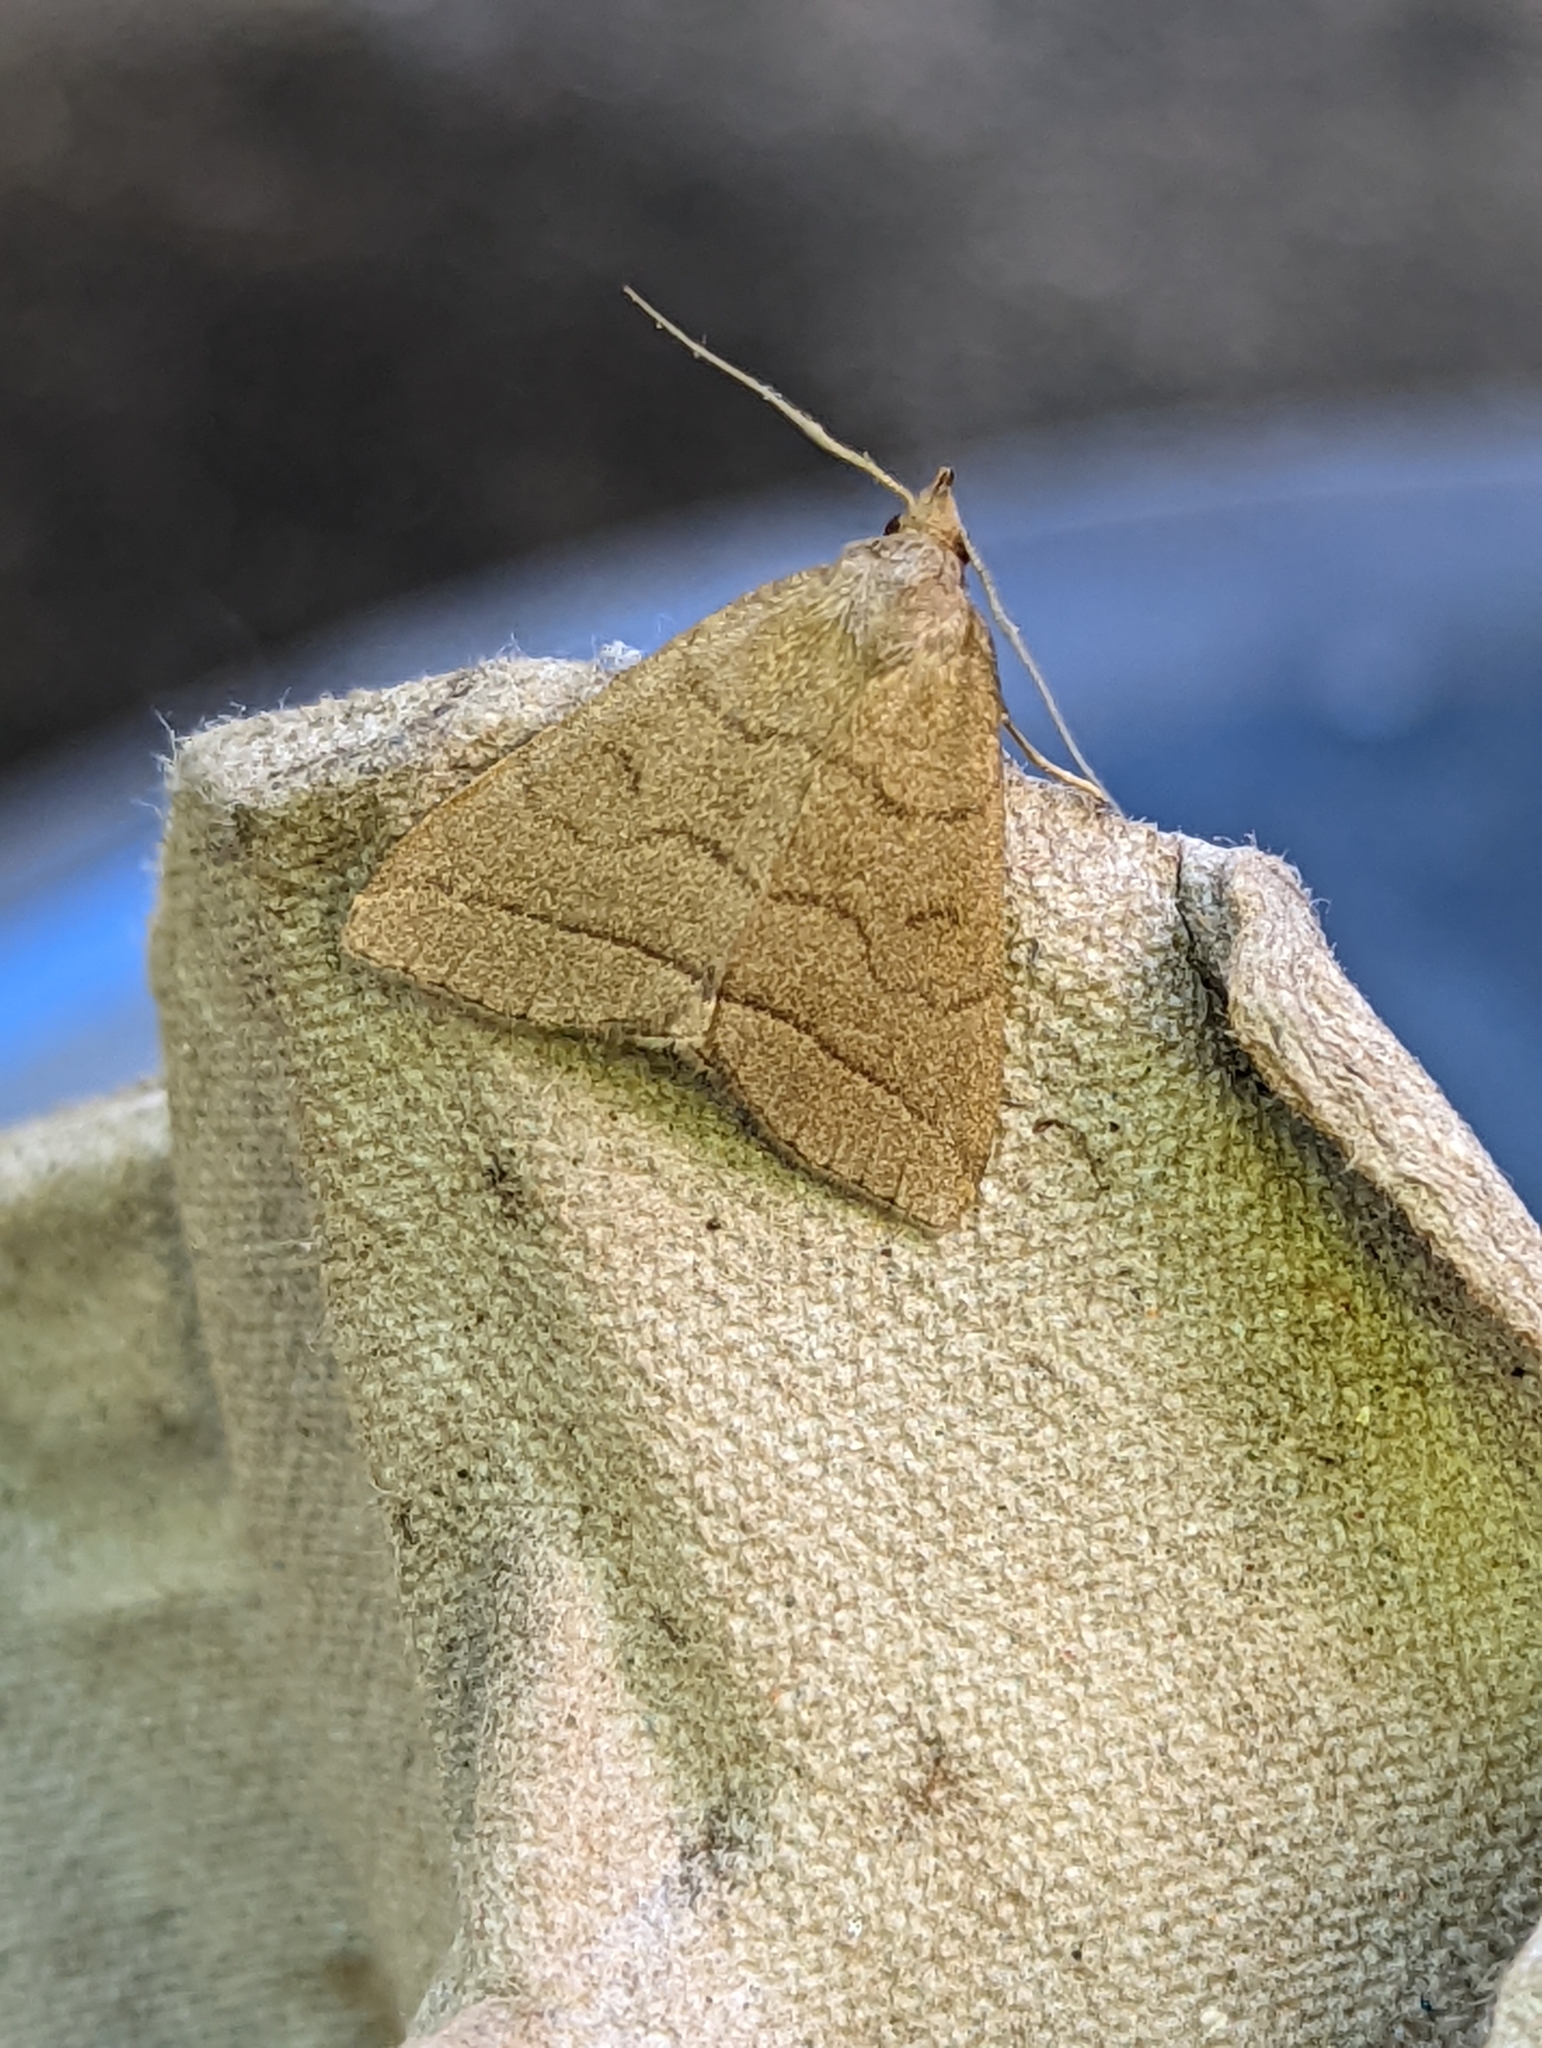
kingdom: Animalia
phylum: Arthropoda
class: Insecta
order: Lepidoptera
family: Erebidae
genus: Herminia
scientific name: Herminia tarsipennalis
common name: Fan-foot
